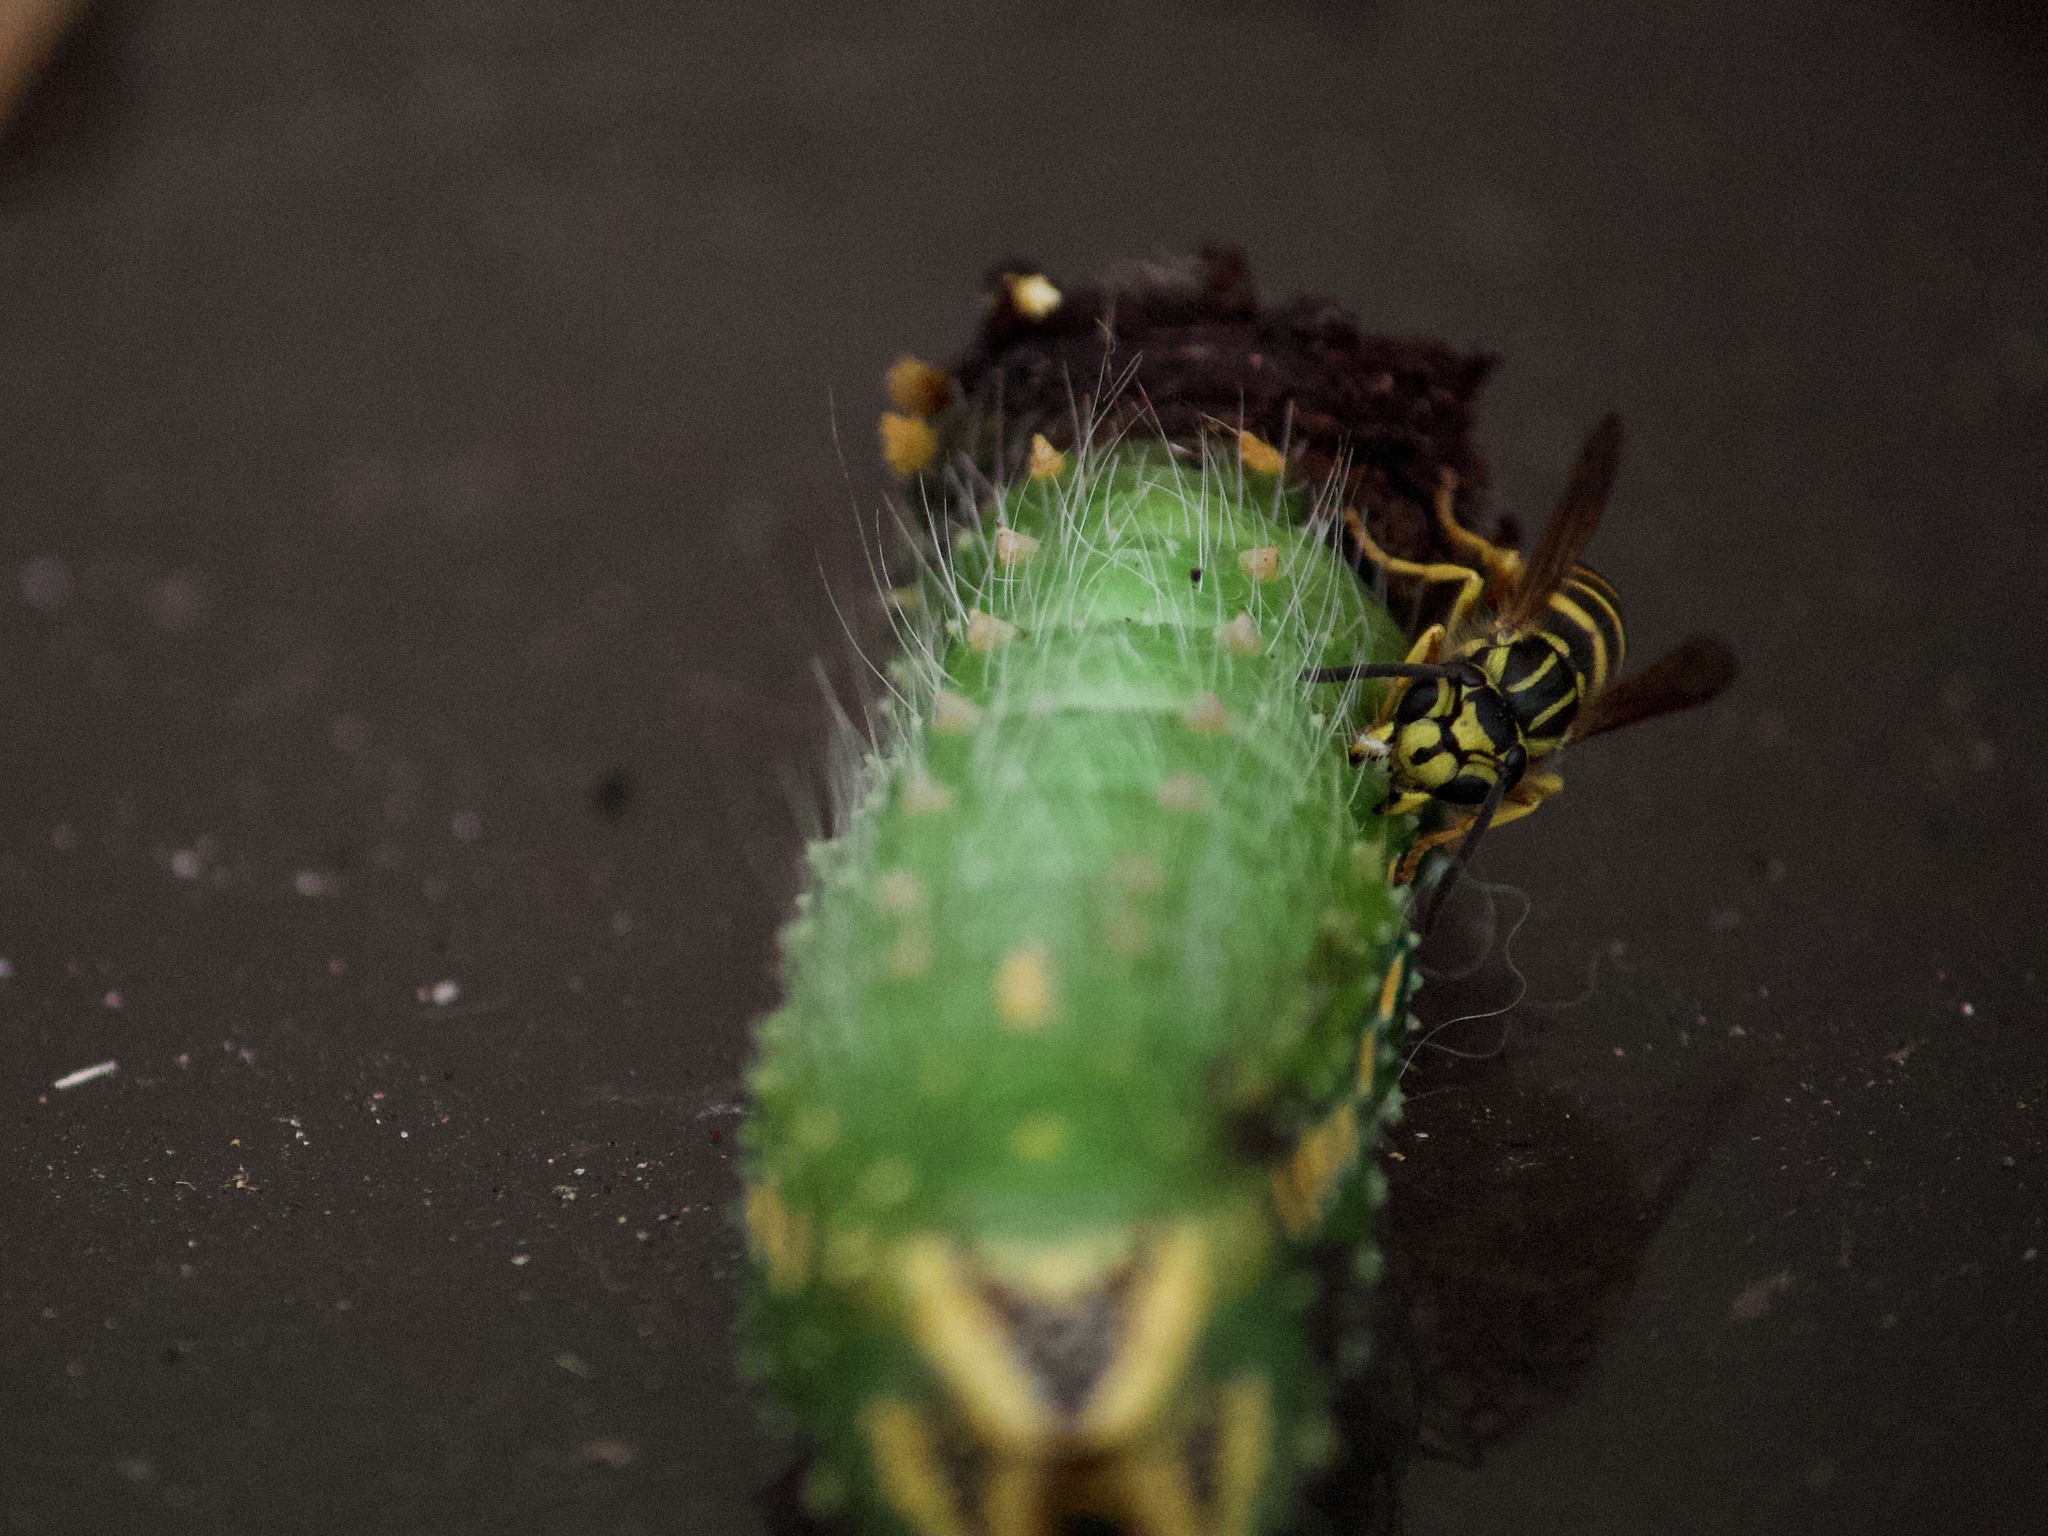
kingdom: Animalia
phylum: Arthropoda
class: Insecta
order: Hymenoptera
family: Vespidae
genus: Vespula
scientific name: Vespula squamosa
